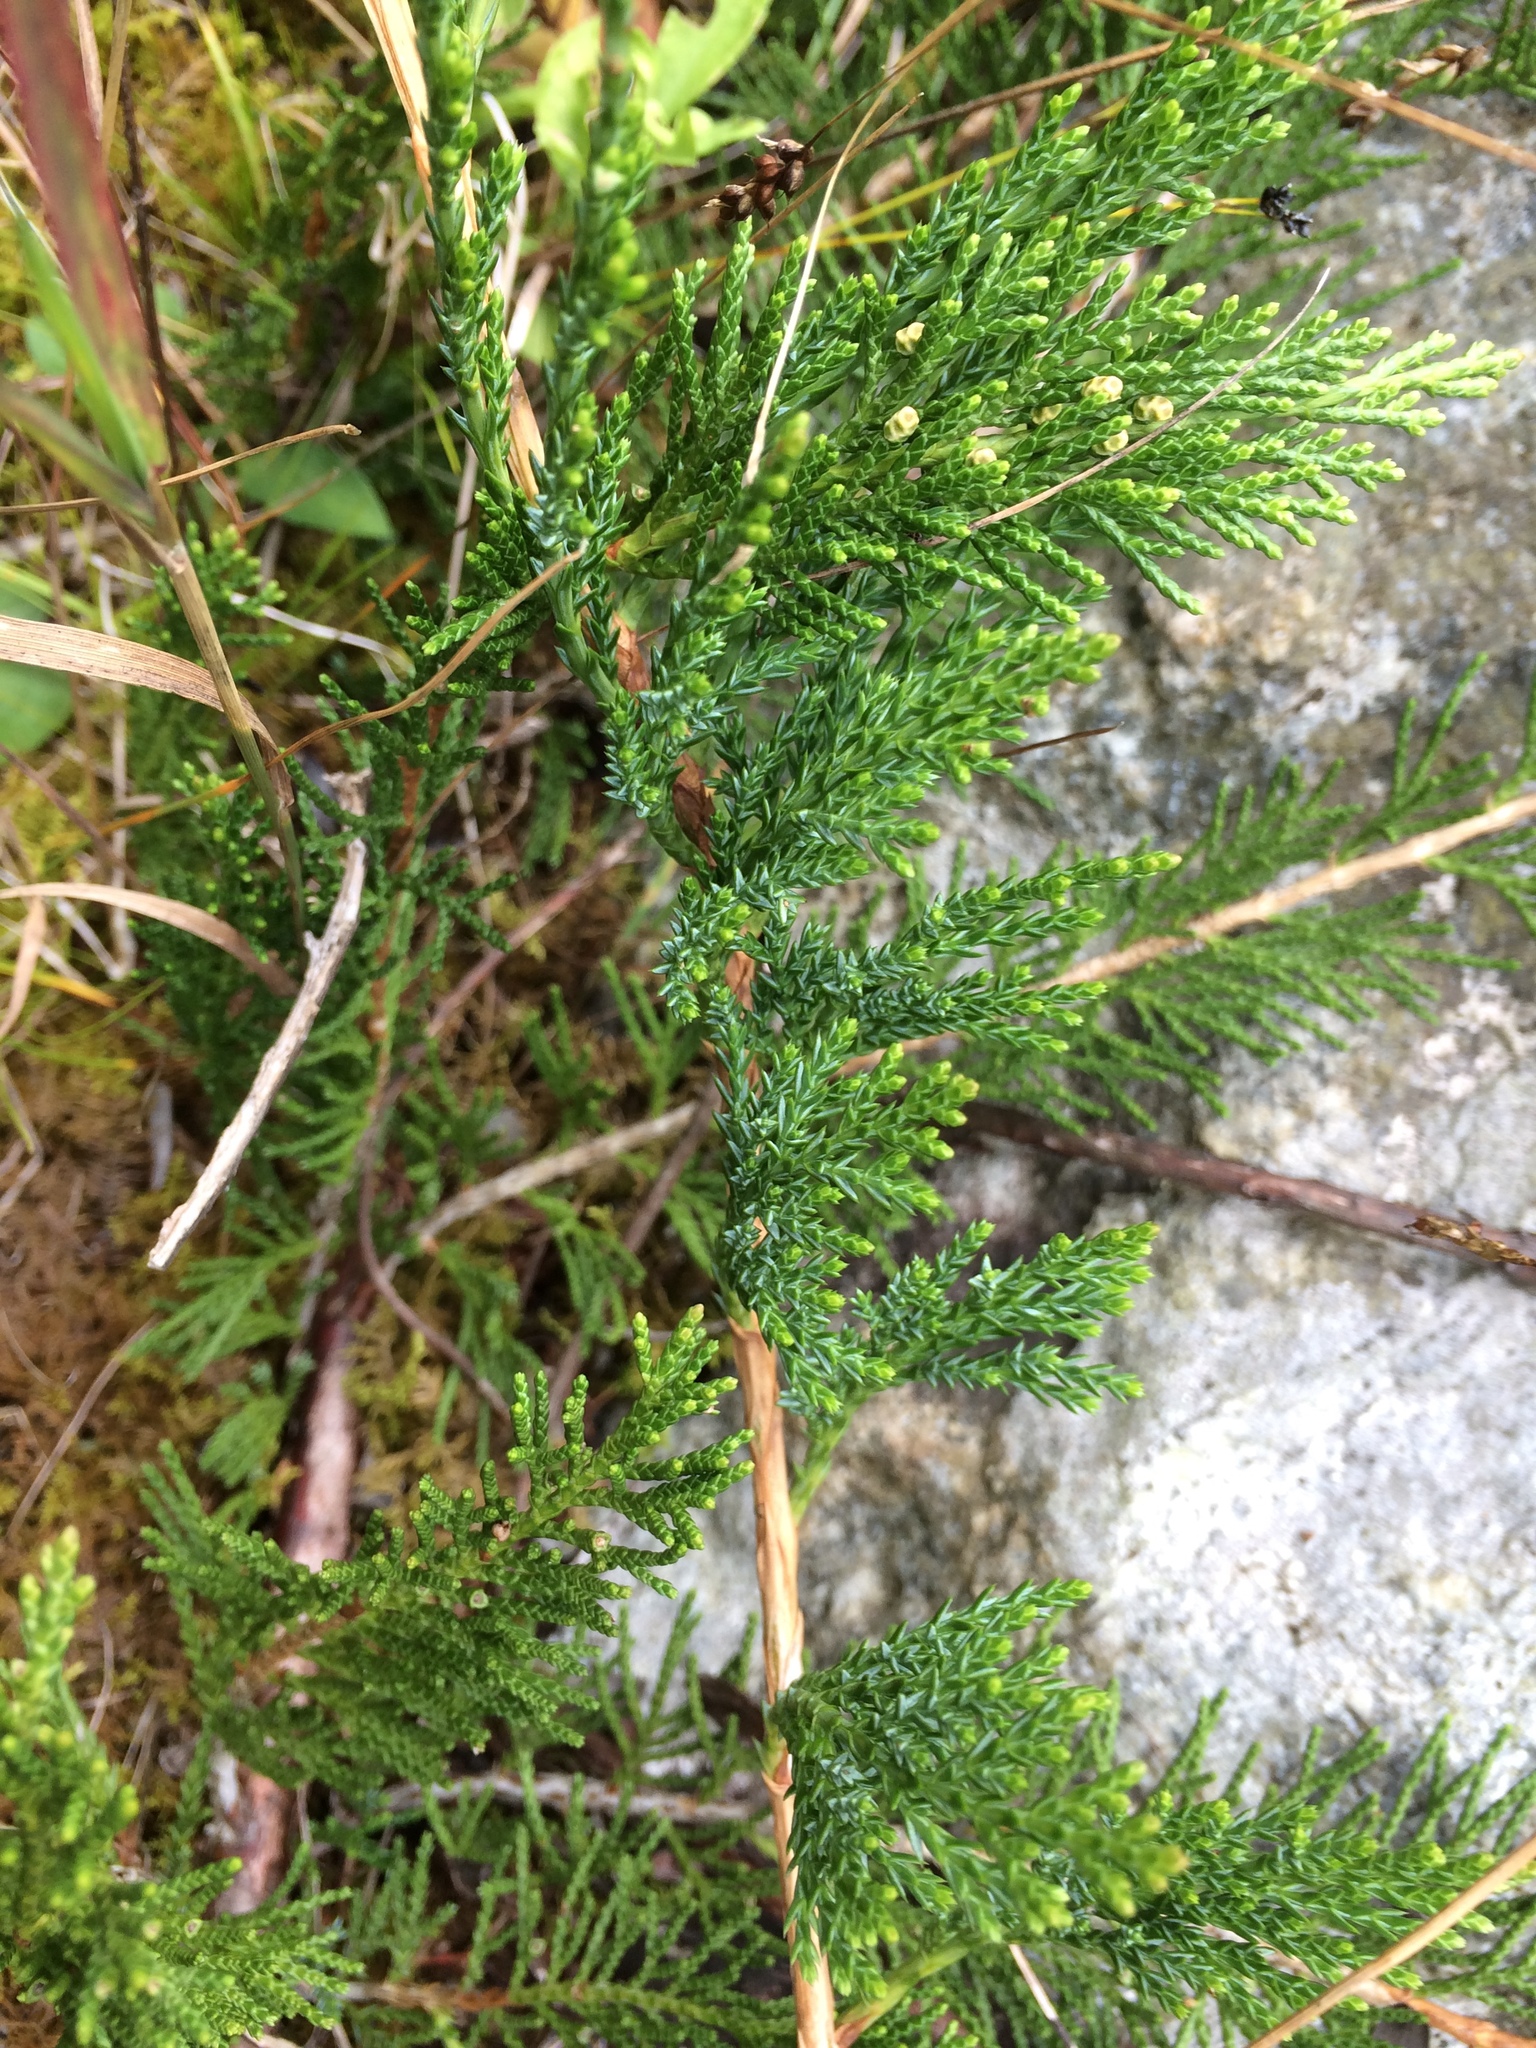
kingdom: Plantae
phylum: Tracheophyta
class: Pinopsida
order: Pinales
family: Cupressaceae
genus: Juniperus
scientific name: Juniperus horizontalis
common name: Creeping juniper
